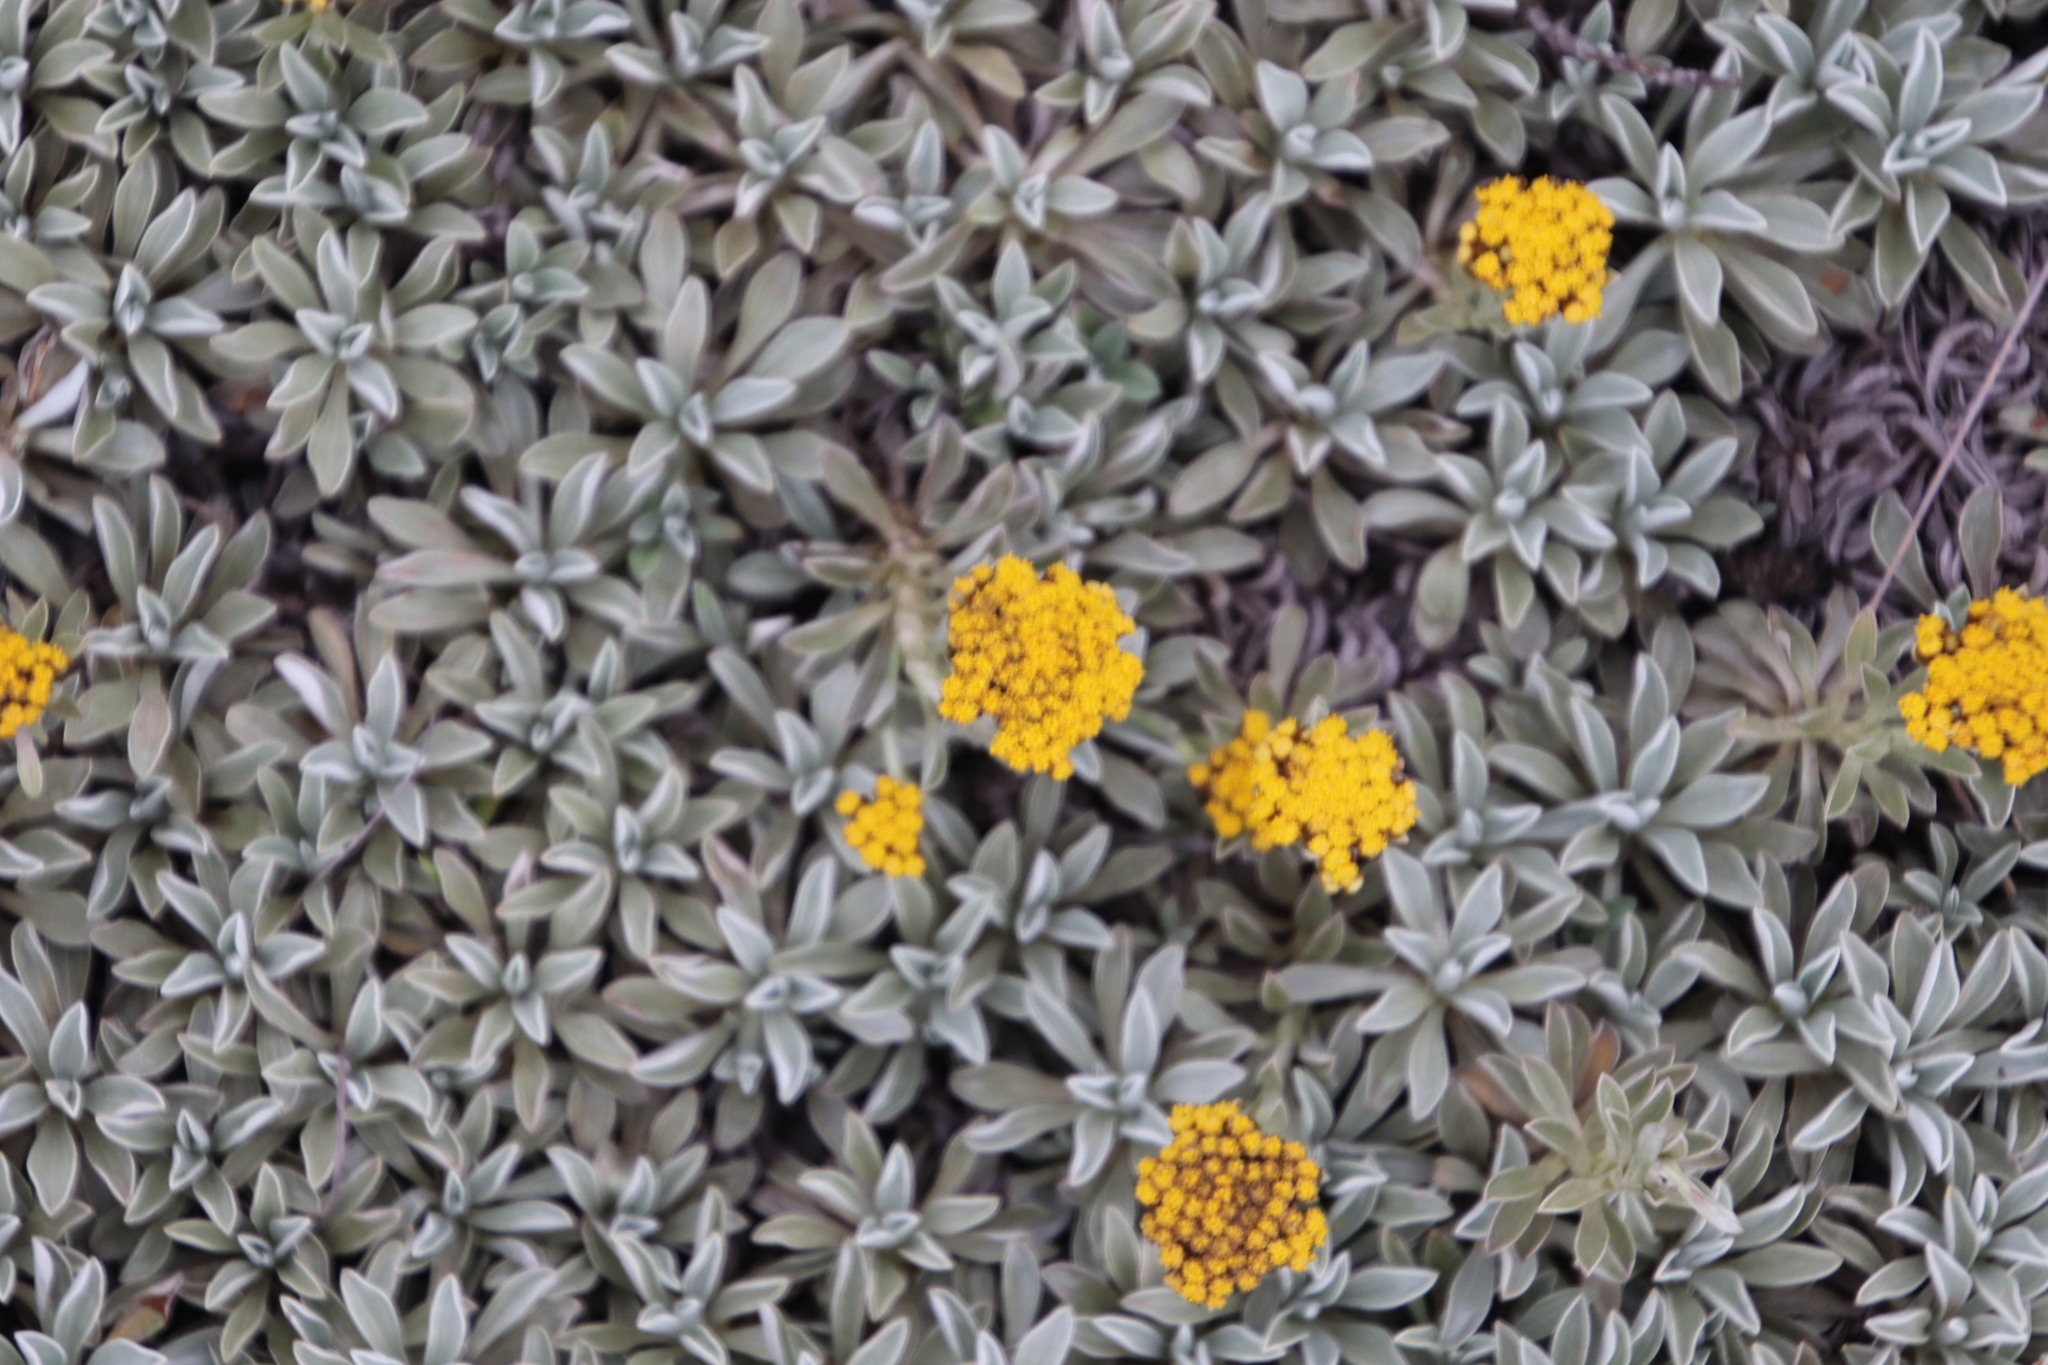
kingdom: Plantae
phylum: Tracheophyta
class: Magnoliopsida
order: Asterales
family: Asteraceae
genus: Helichrysum
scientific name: Helichrysum albirosulatum
